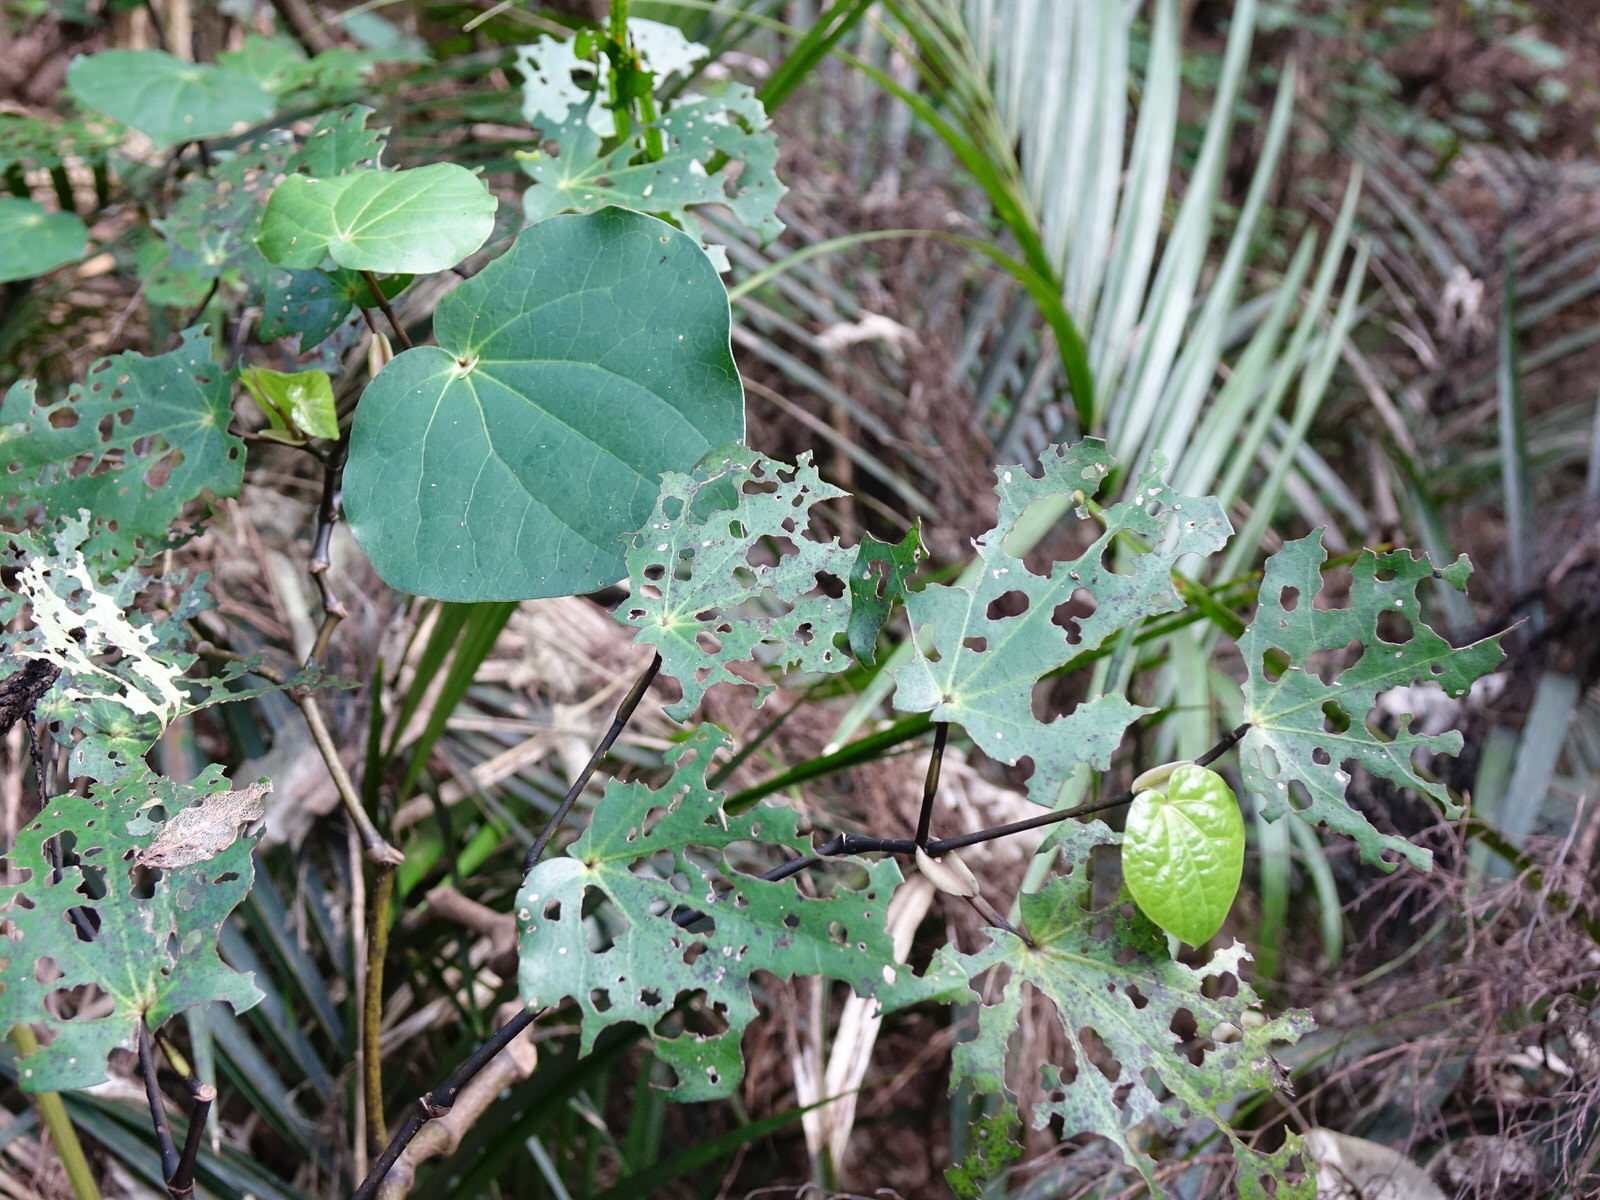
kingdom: Plantae
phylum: Tracheophyta
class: Magnoliopsida
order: Piperales
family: Piperaceae
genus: Macropiper
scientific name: Macropiper excelsum
